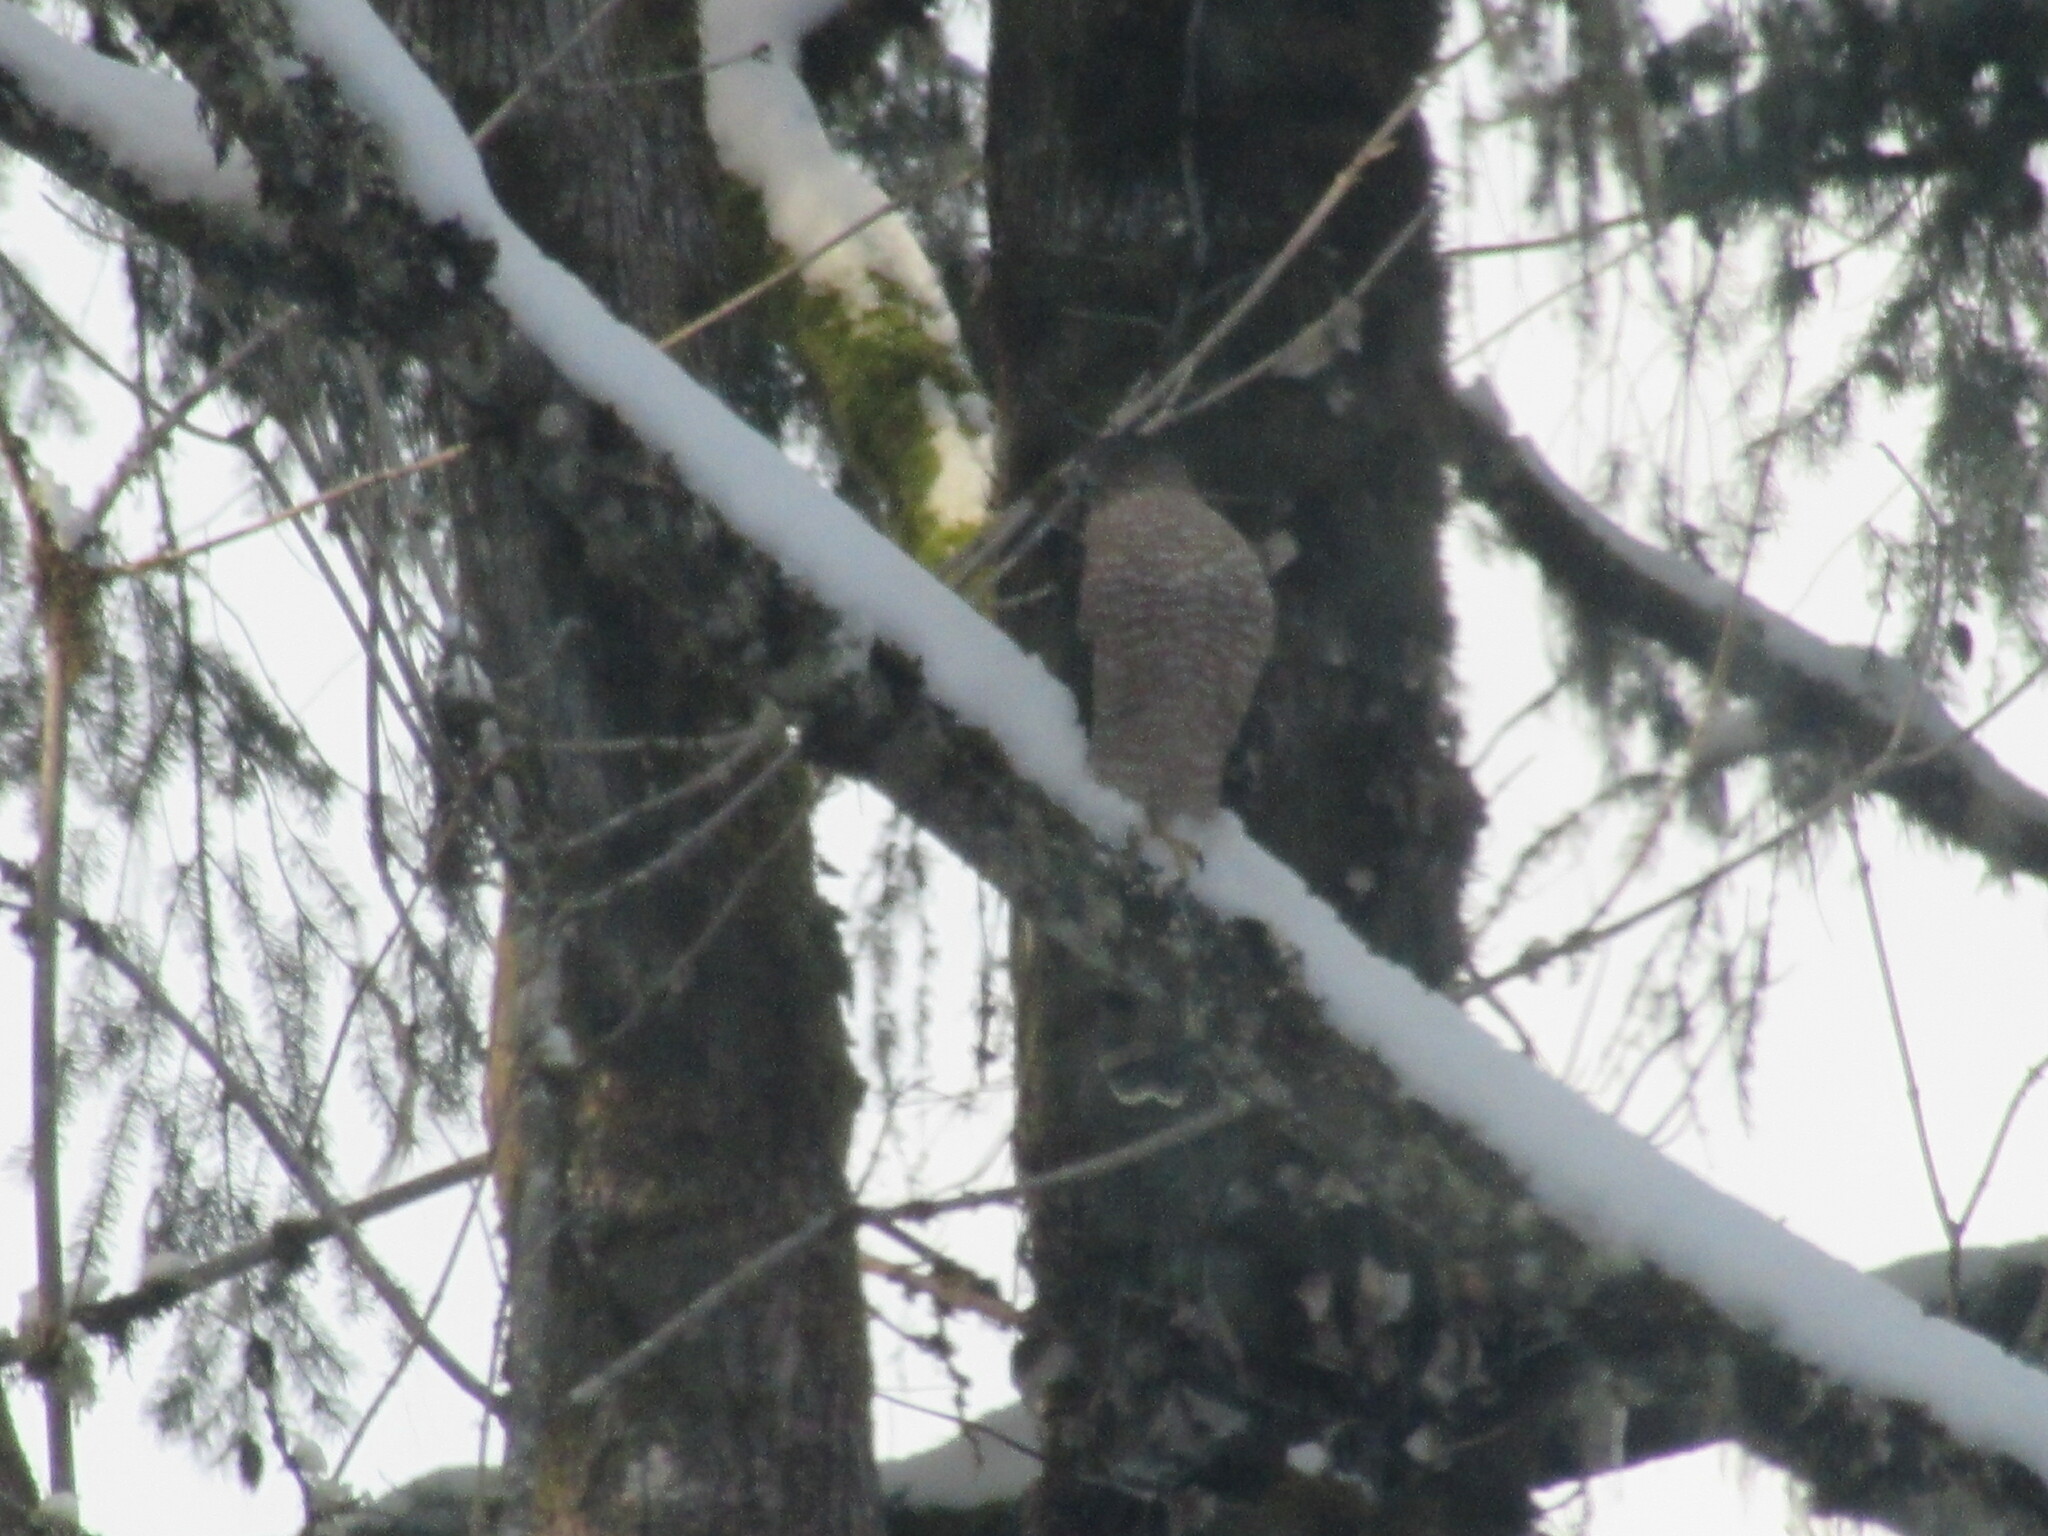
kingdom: Animalia
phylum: Chordata
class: Aves
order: Accipitriformes
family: Accipitridae
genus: Accipiter
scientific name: Accipiter striatus
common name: Sharp-shinned hawk
